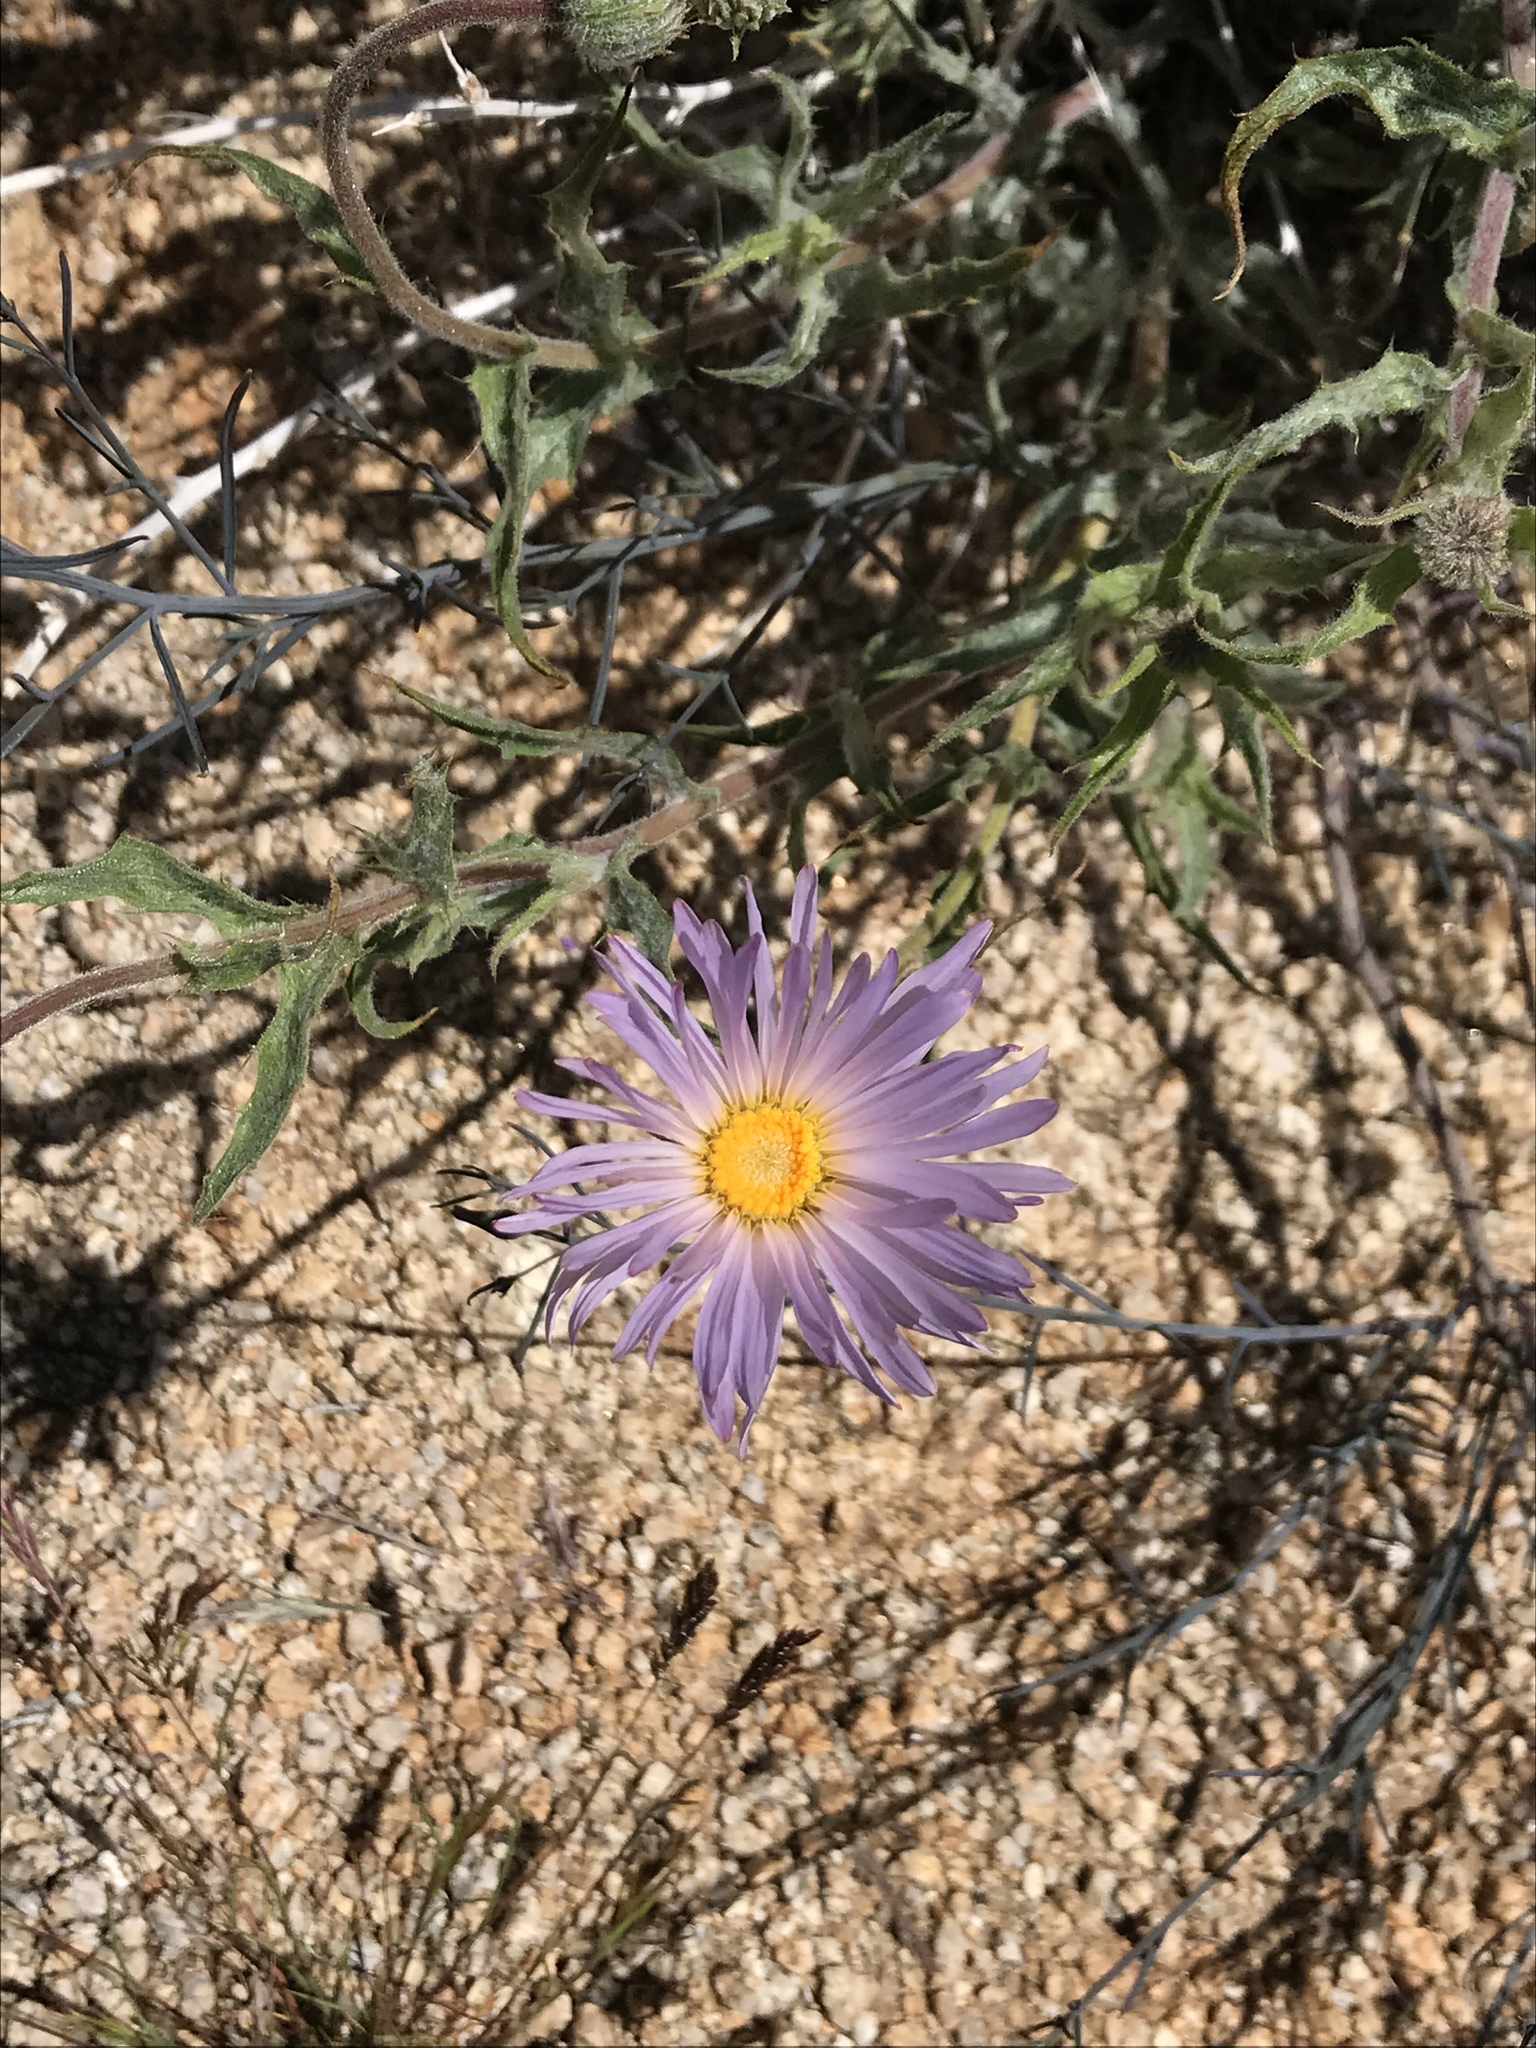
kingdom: Plantae
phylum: Tracheophyta
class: Magnoliopsida
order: Asterales
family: Asteraceae
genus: Xylorhiza
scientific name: Xylorhiza tortifolia
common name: Hurt-leaf woody-aster
